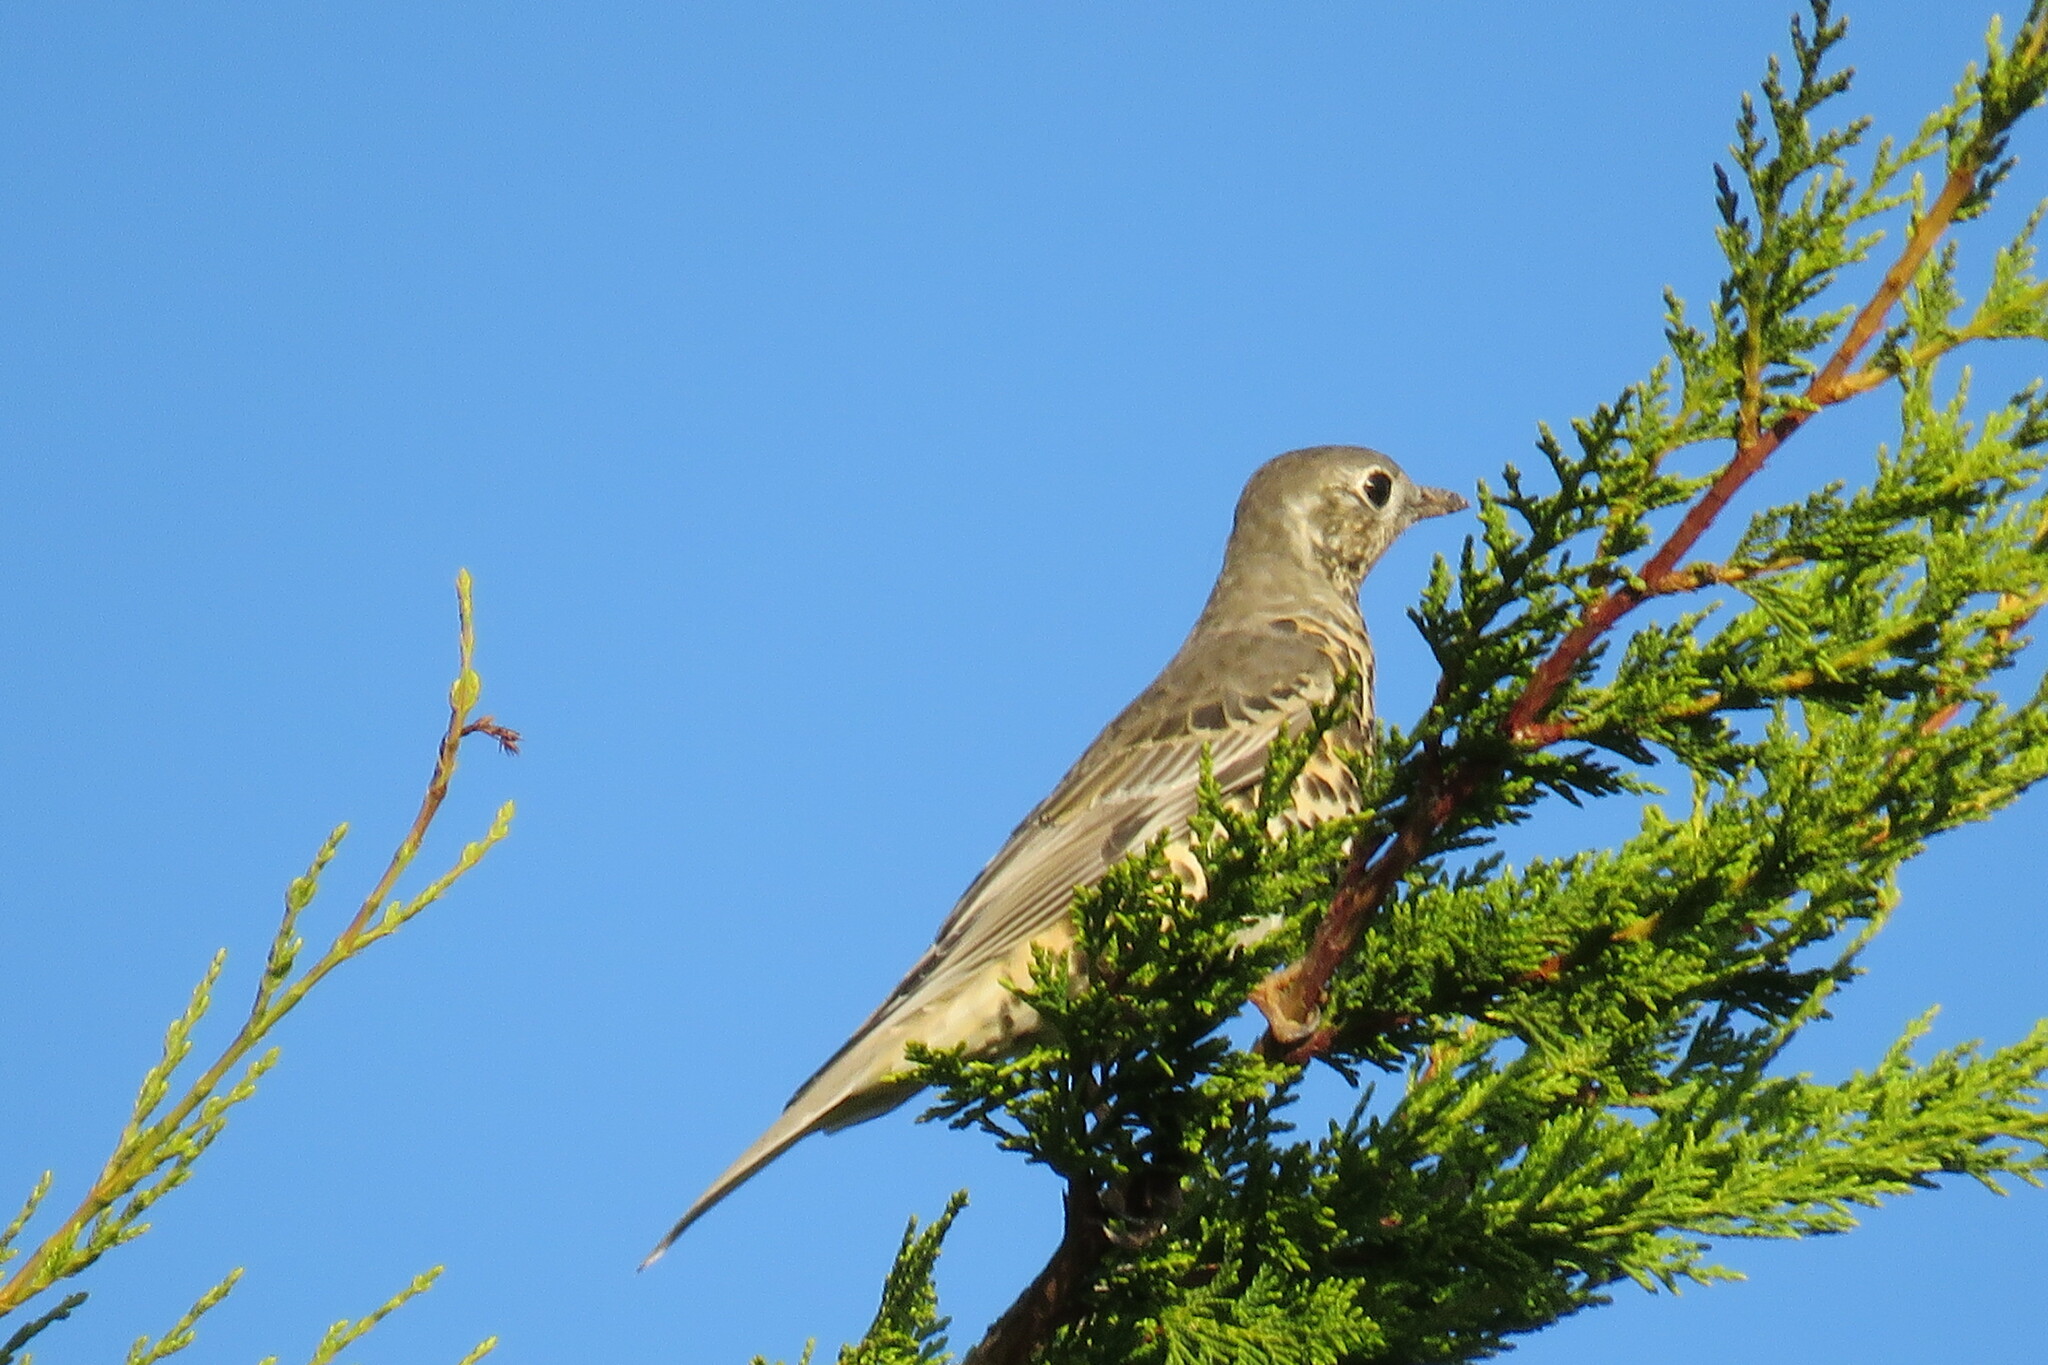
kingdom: Animalia
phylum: Chordata
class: Aves
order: Passeriformes
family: Turdidae
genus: Turdus
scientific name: Turdus viscivorus
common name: Mistle thrush
